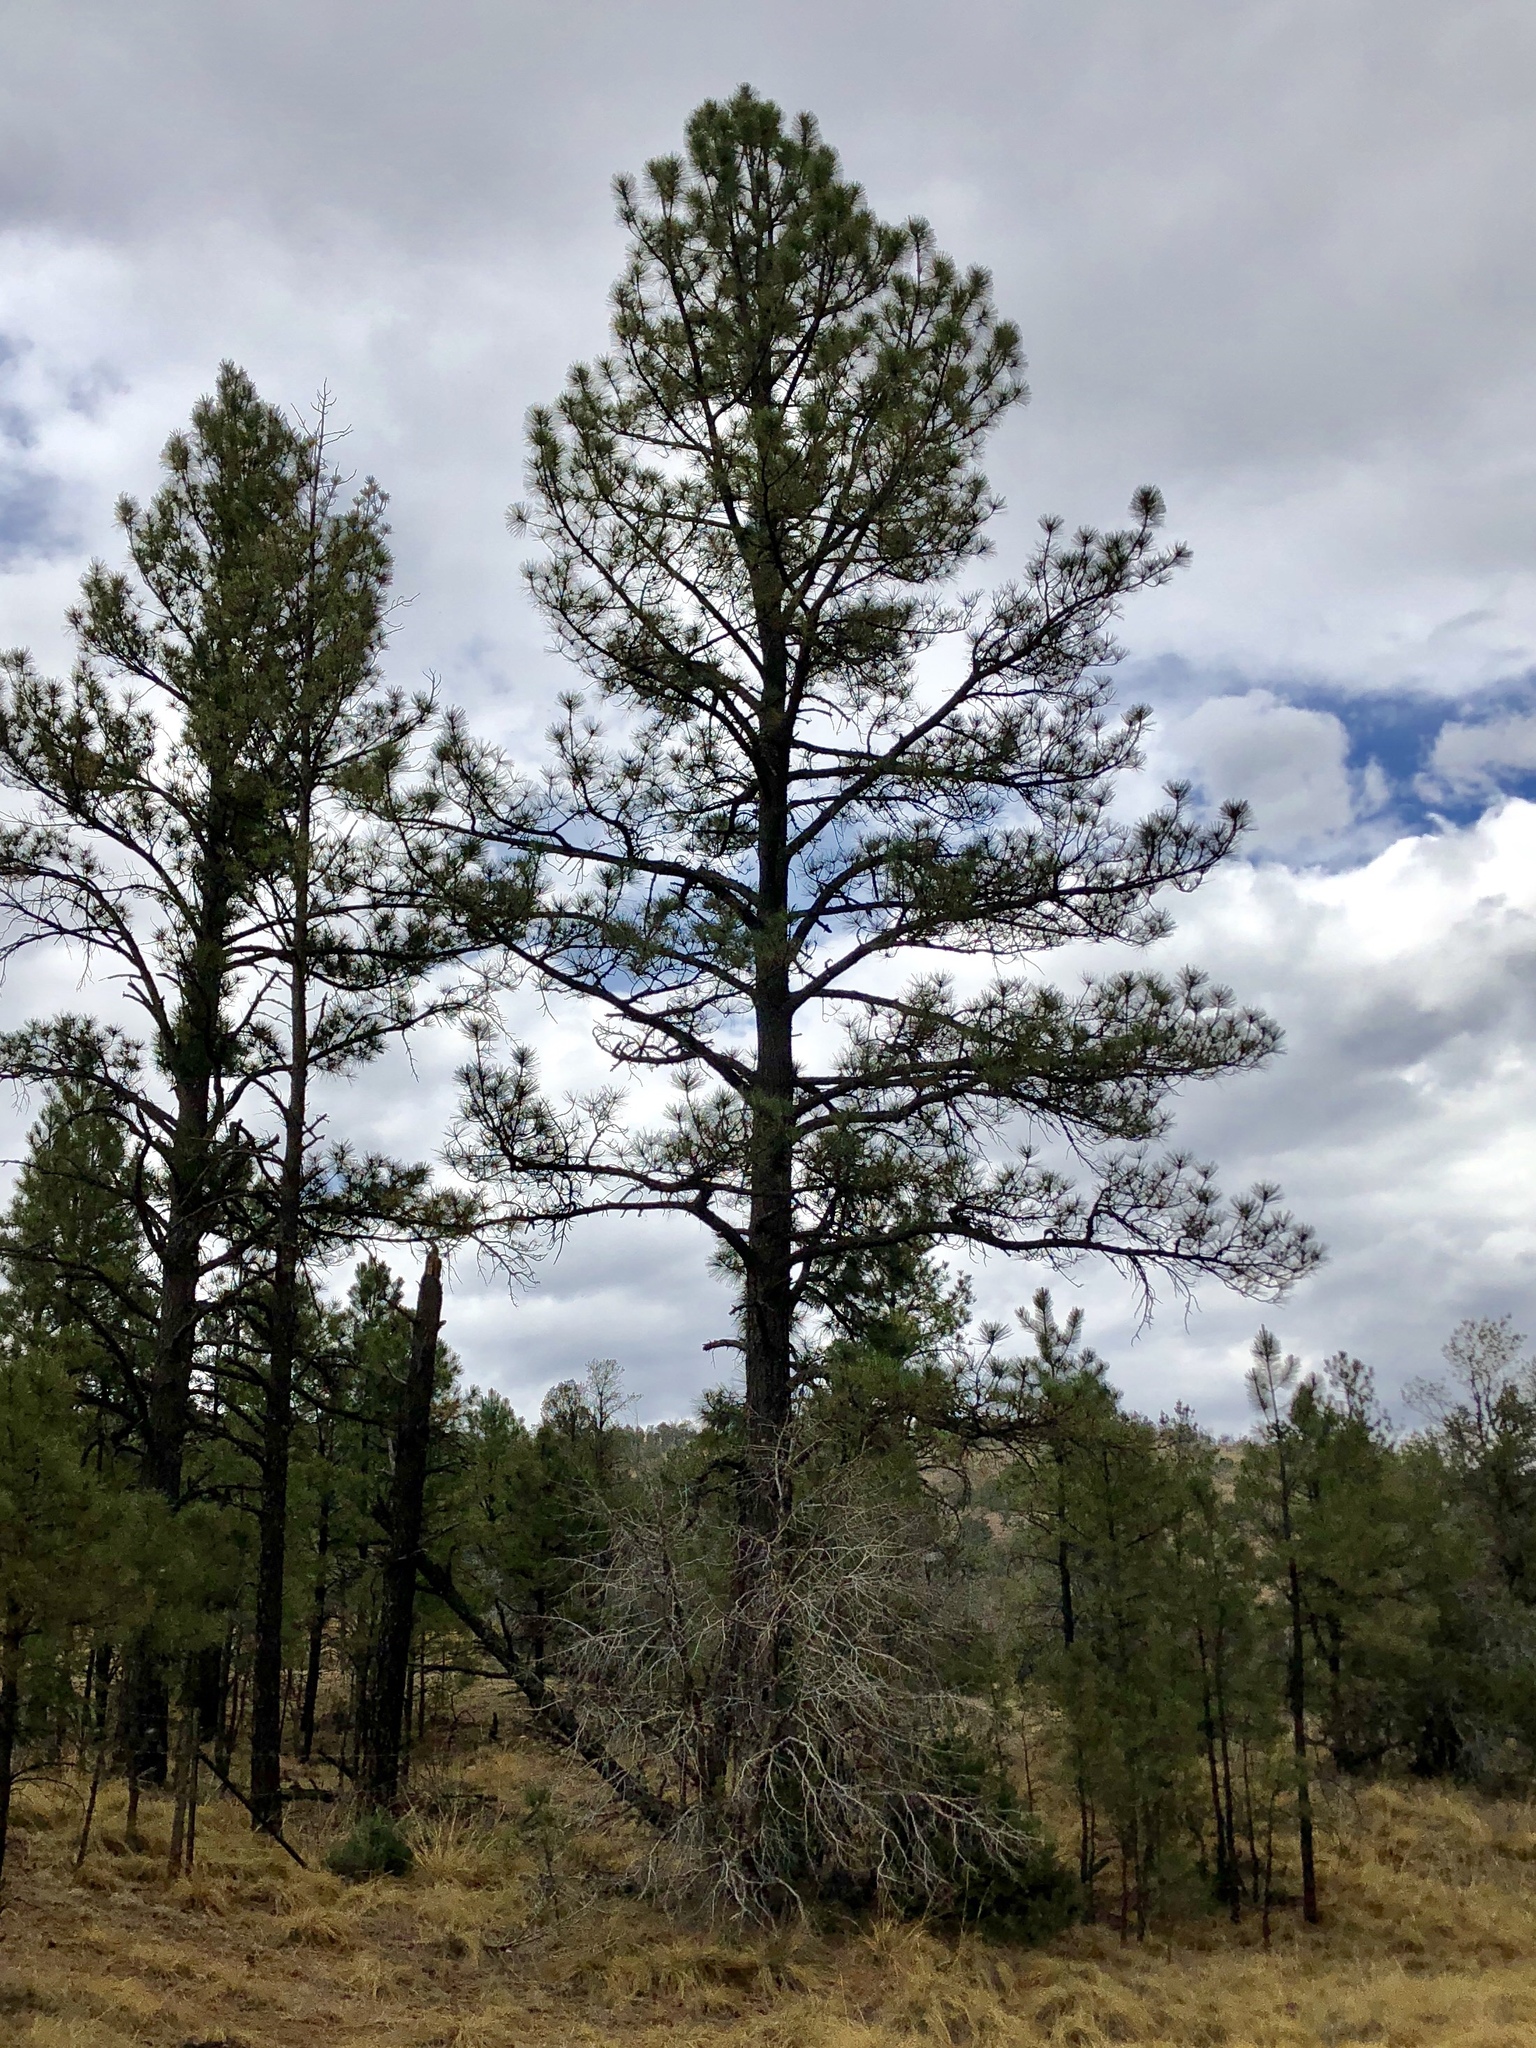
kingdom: Plantae
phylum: Tracheophyta
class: Pinopsida
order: Pinales
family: Pinaceae
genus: Pinus
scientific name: Pinus ponderosa
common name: Western yellow-pine
